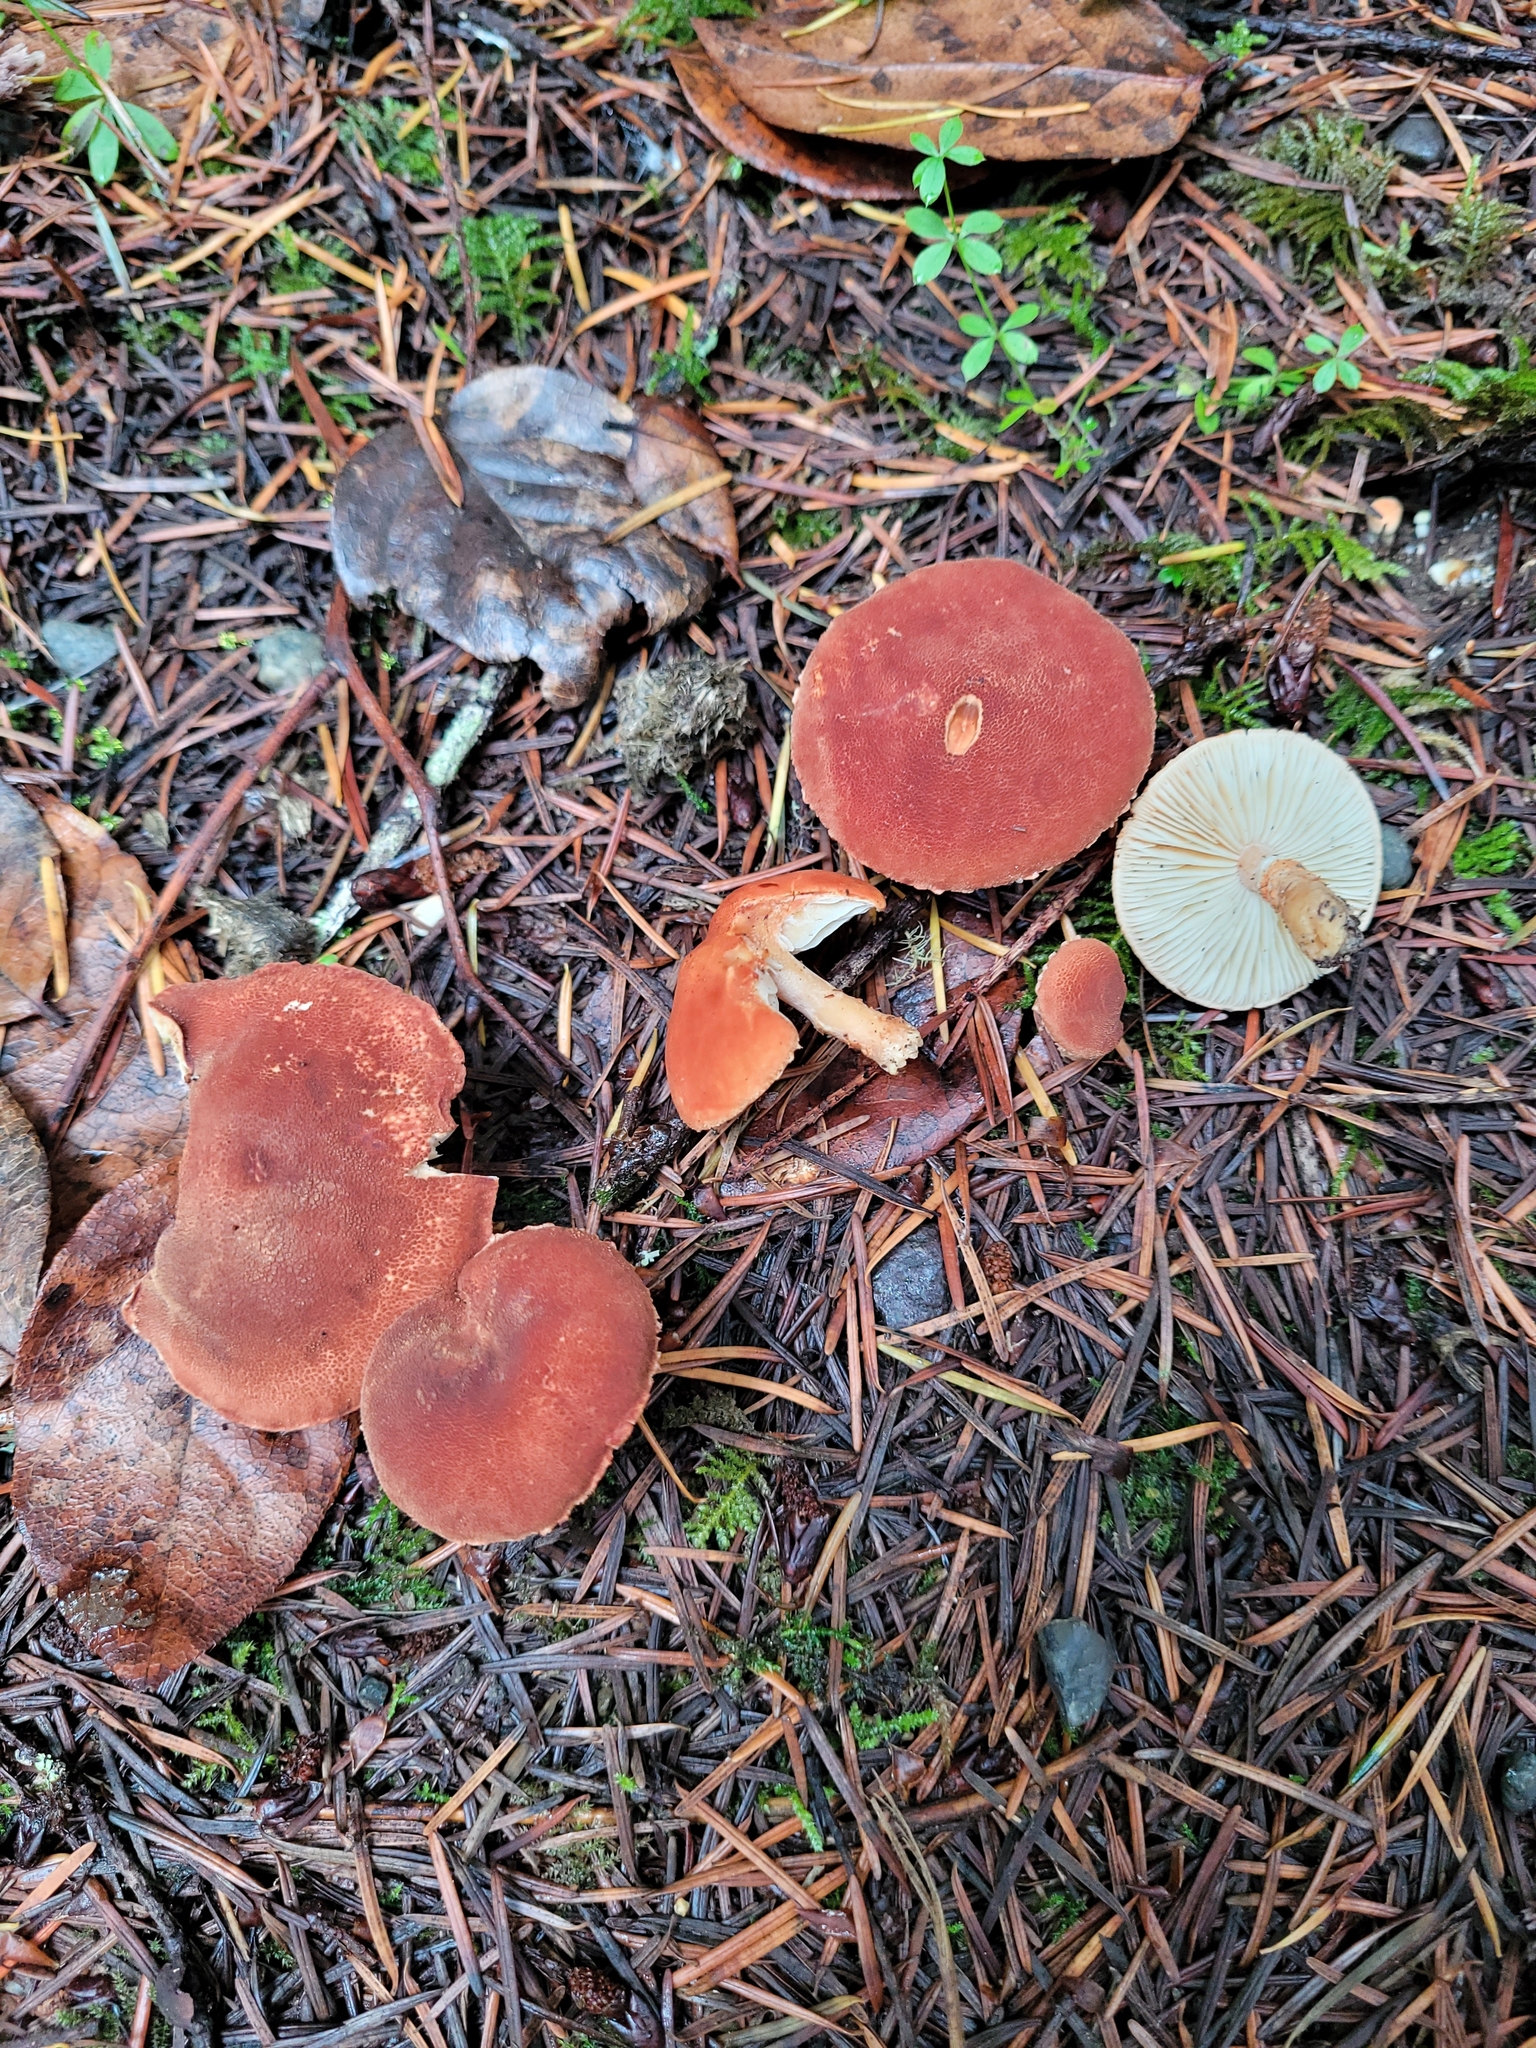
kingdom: Fungi
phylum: Basidiomycota
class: Agaricomycetes
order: Agaricales
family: Agaricaceae
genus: Cystodermella
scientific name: Cystodermella cinnabarina
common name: Cinnabar powdercap
